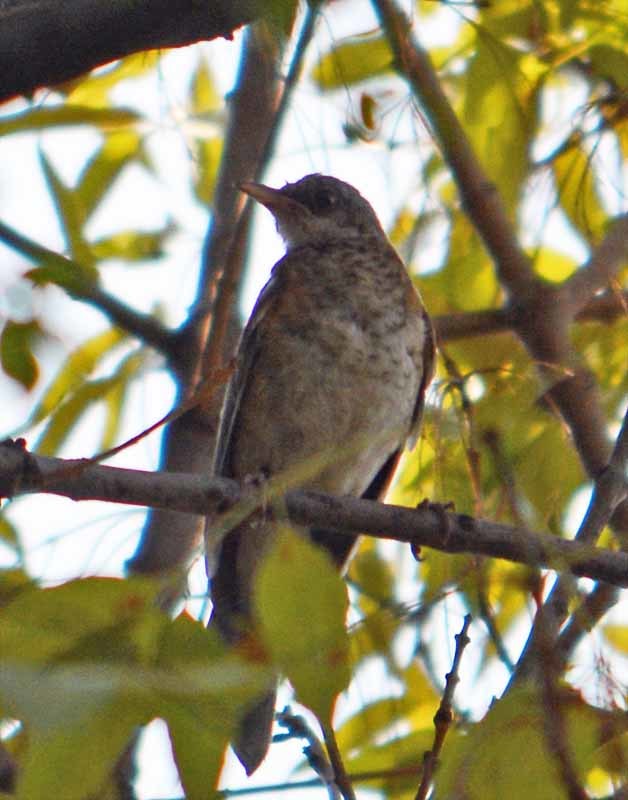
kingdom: Animalia
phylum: Chordata
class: Aves
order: Passeriformes
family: Turdidae
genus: Turdus
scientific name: Turdus rufopalliatus
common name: Rufous-backed robin
